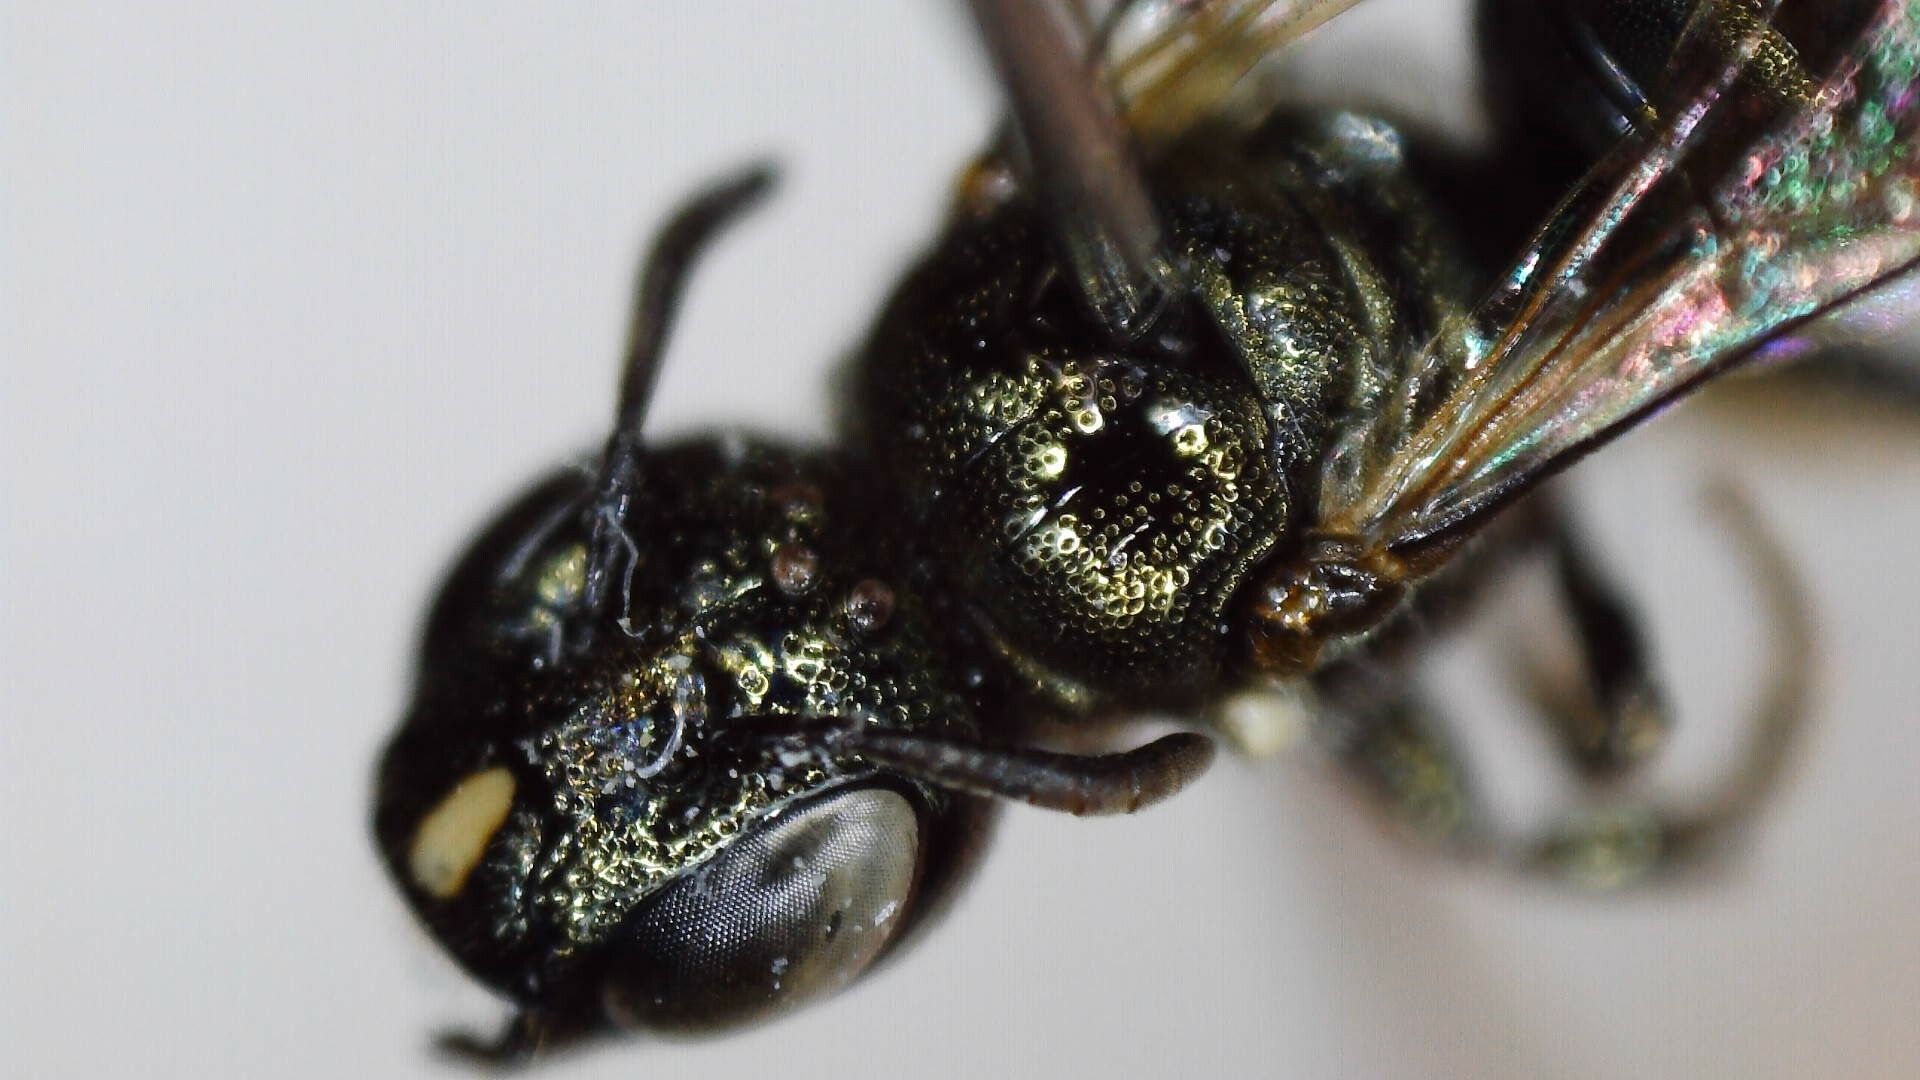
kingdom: Animalia
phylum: Arthropoda
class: Insecta
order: Hymenoptera
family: Apidae
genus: Zadontomerus
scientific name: Zadontomerus
